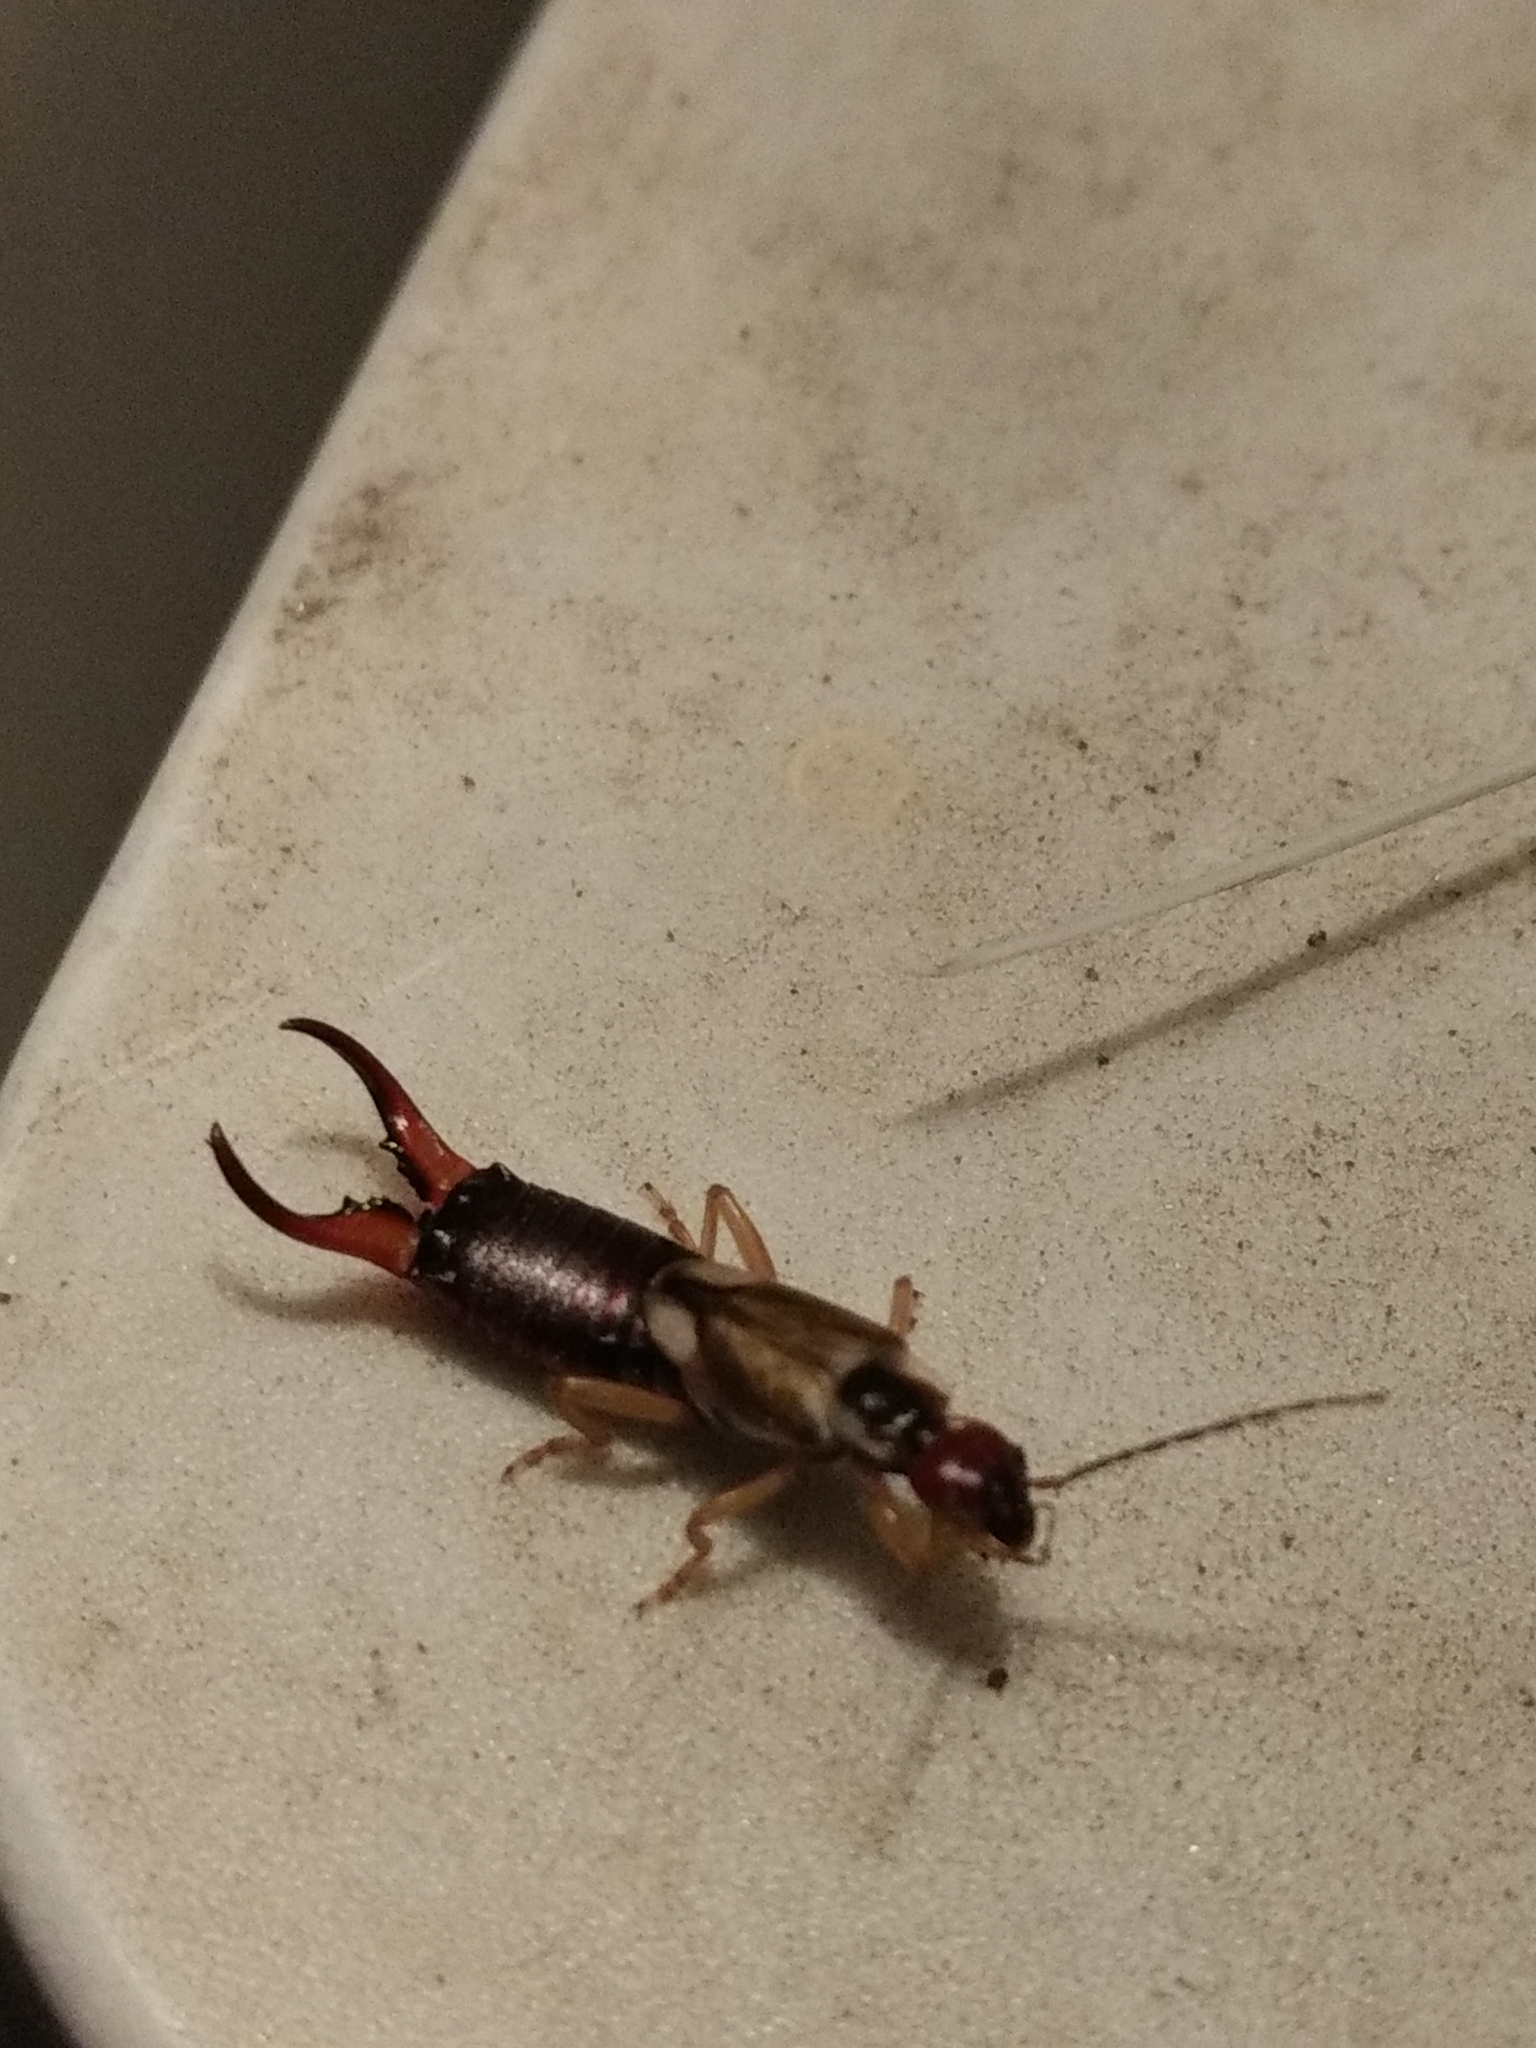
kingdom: Animalia
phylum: Arthropoda
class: Insecta
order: Dermaptera
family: Forficulidae
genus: Forficula
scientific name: Forficula
